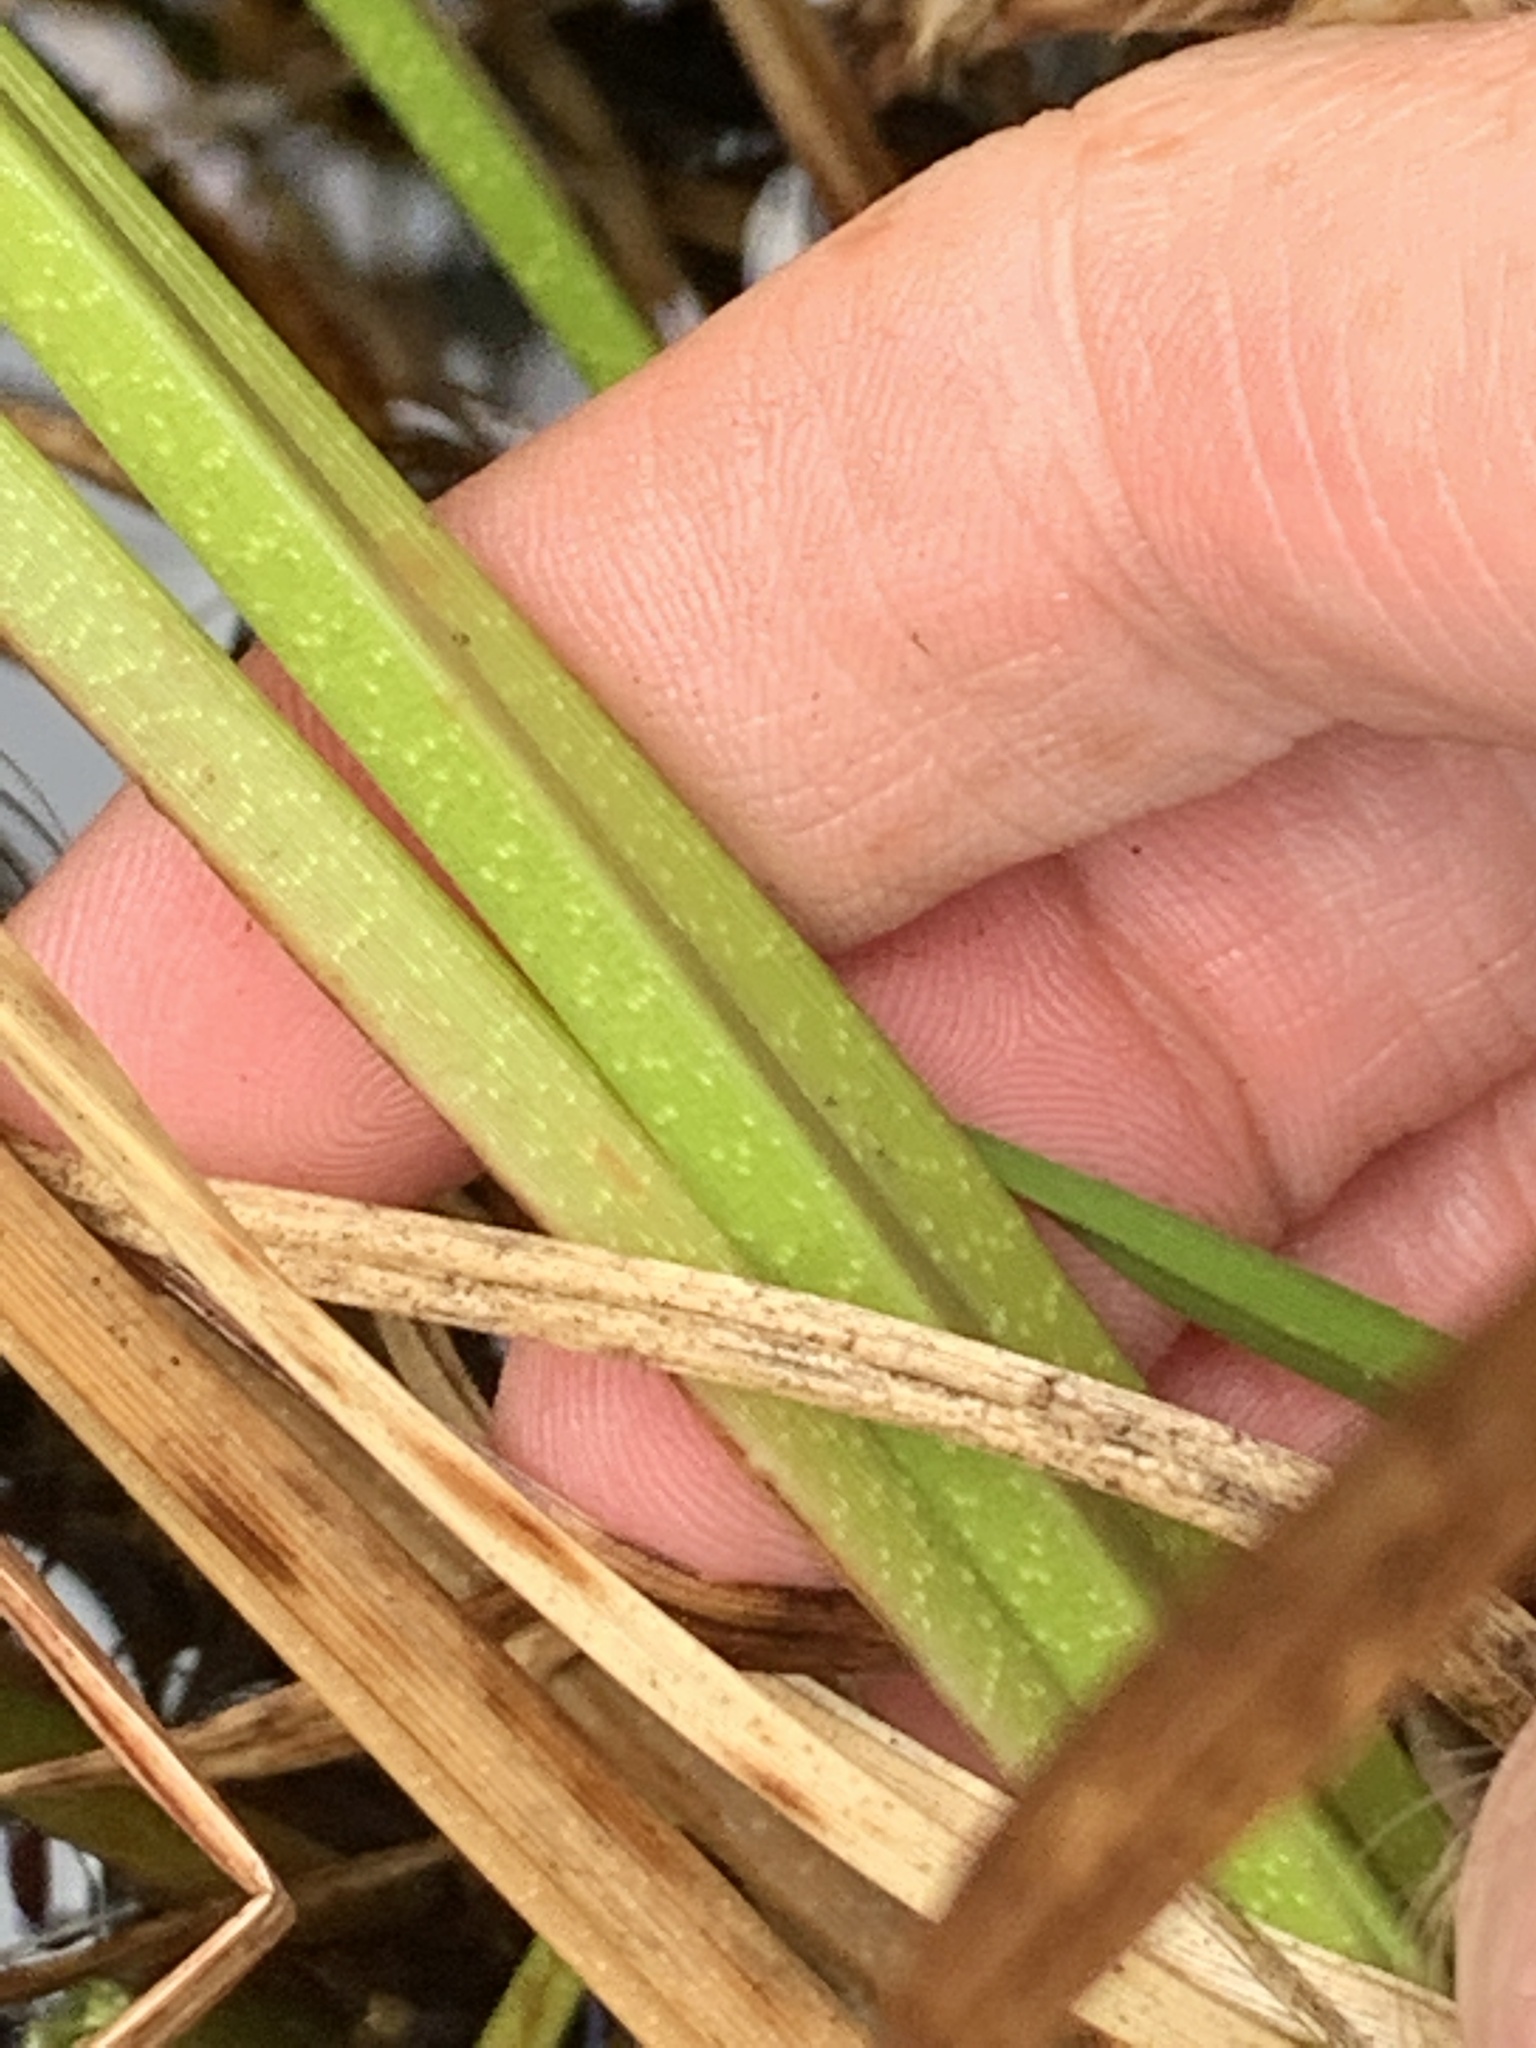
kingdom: Plantae
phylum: Tracheophyta
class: Liliopsida
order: Poales
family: Cyperaceae
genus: Carex
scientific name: Carex utriculata
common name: Beaked sedge
